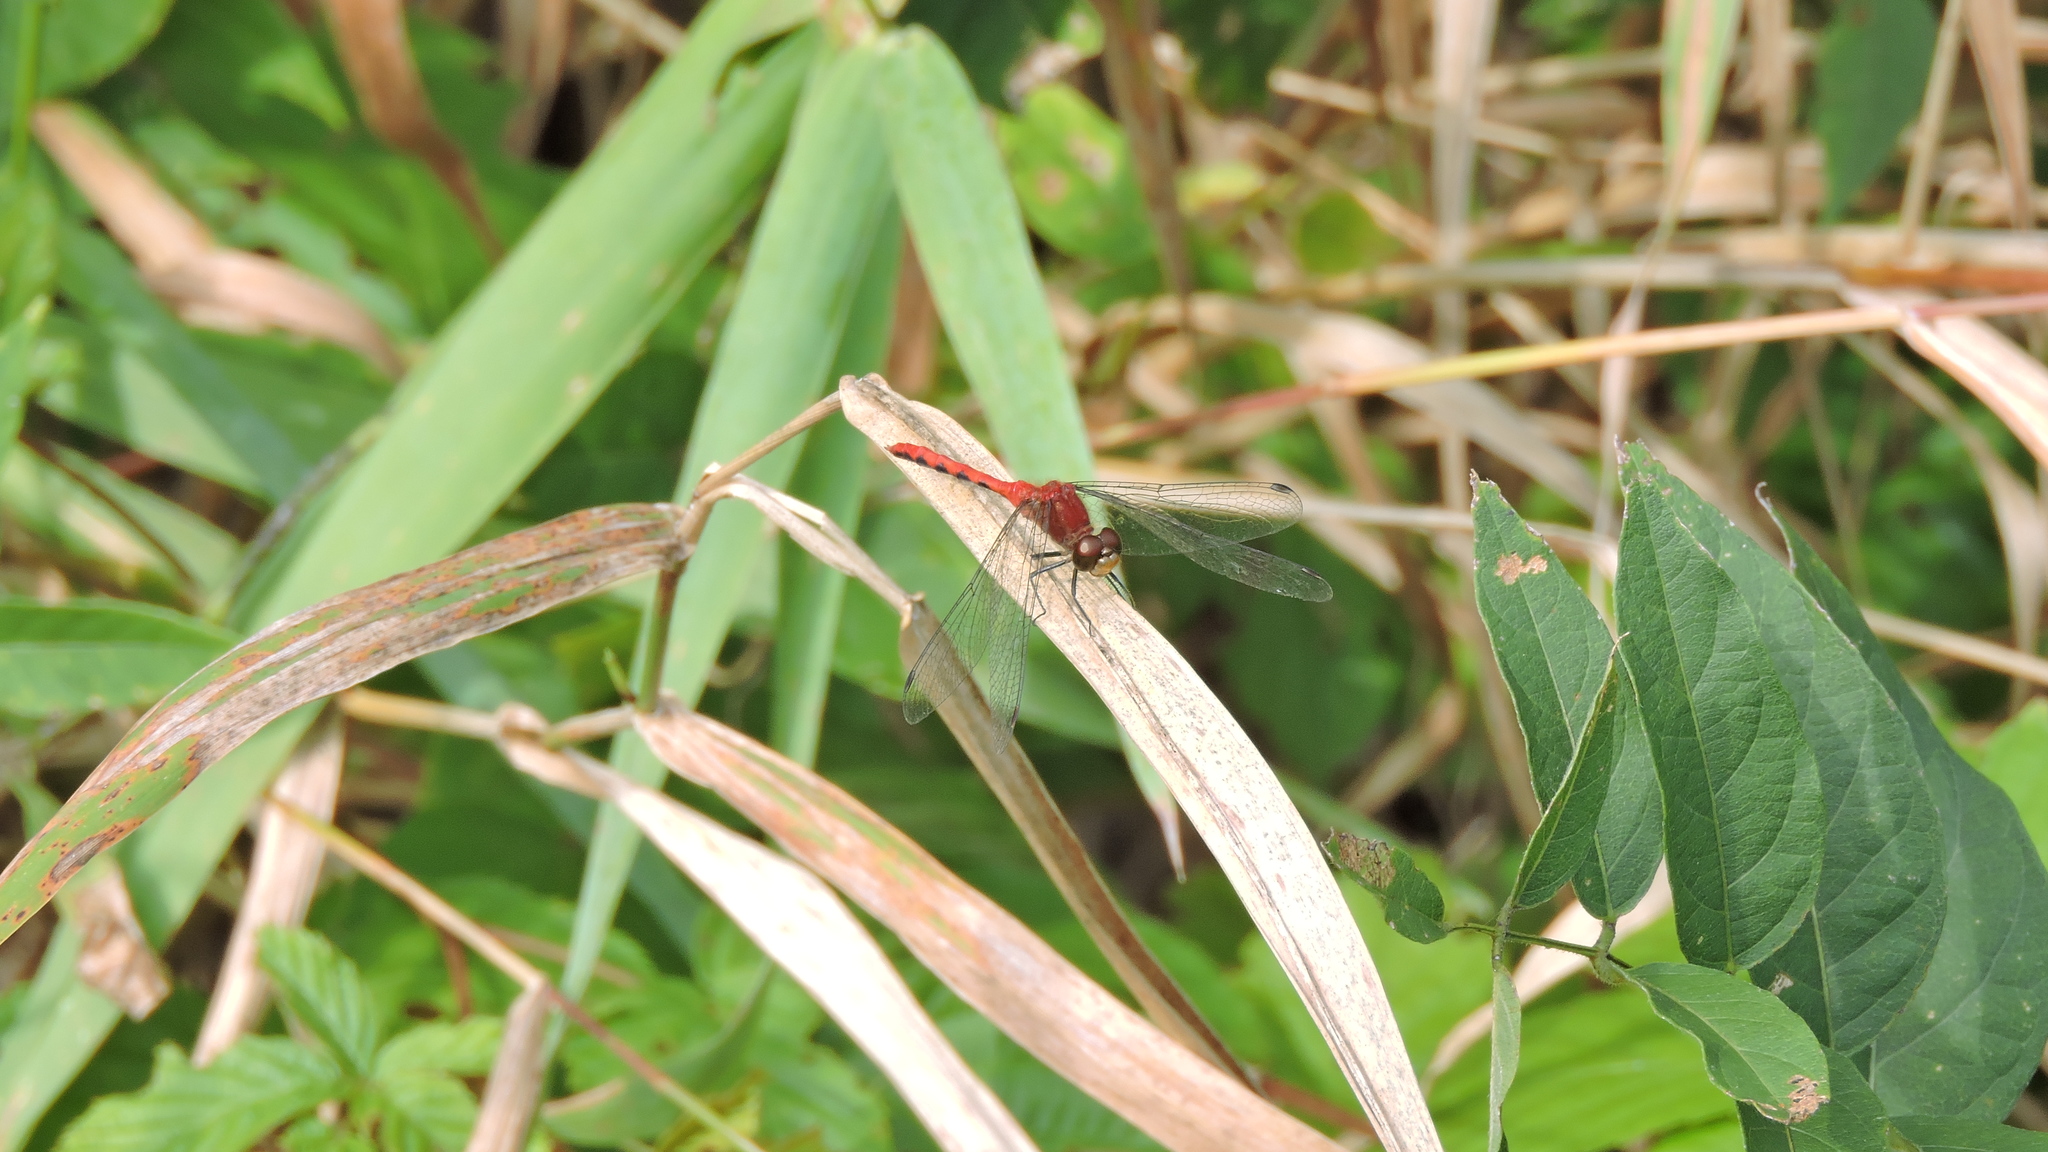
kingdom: Animalia
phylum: Arthropoda
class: Insecta
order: Odonata
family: Libellulidae
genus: Sympetrum
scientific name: Sympetrum
